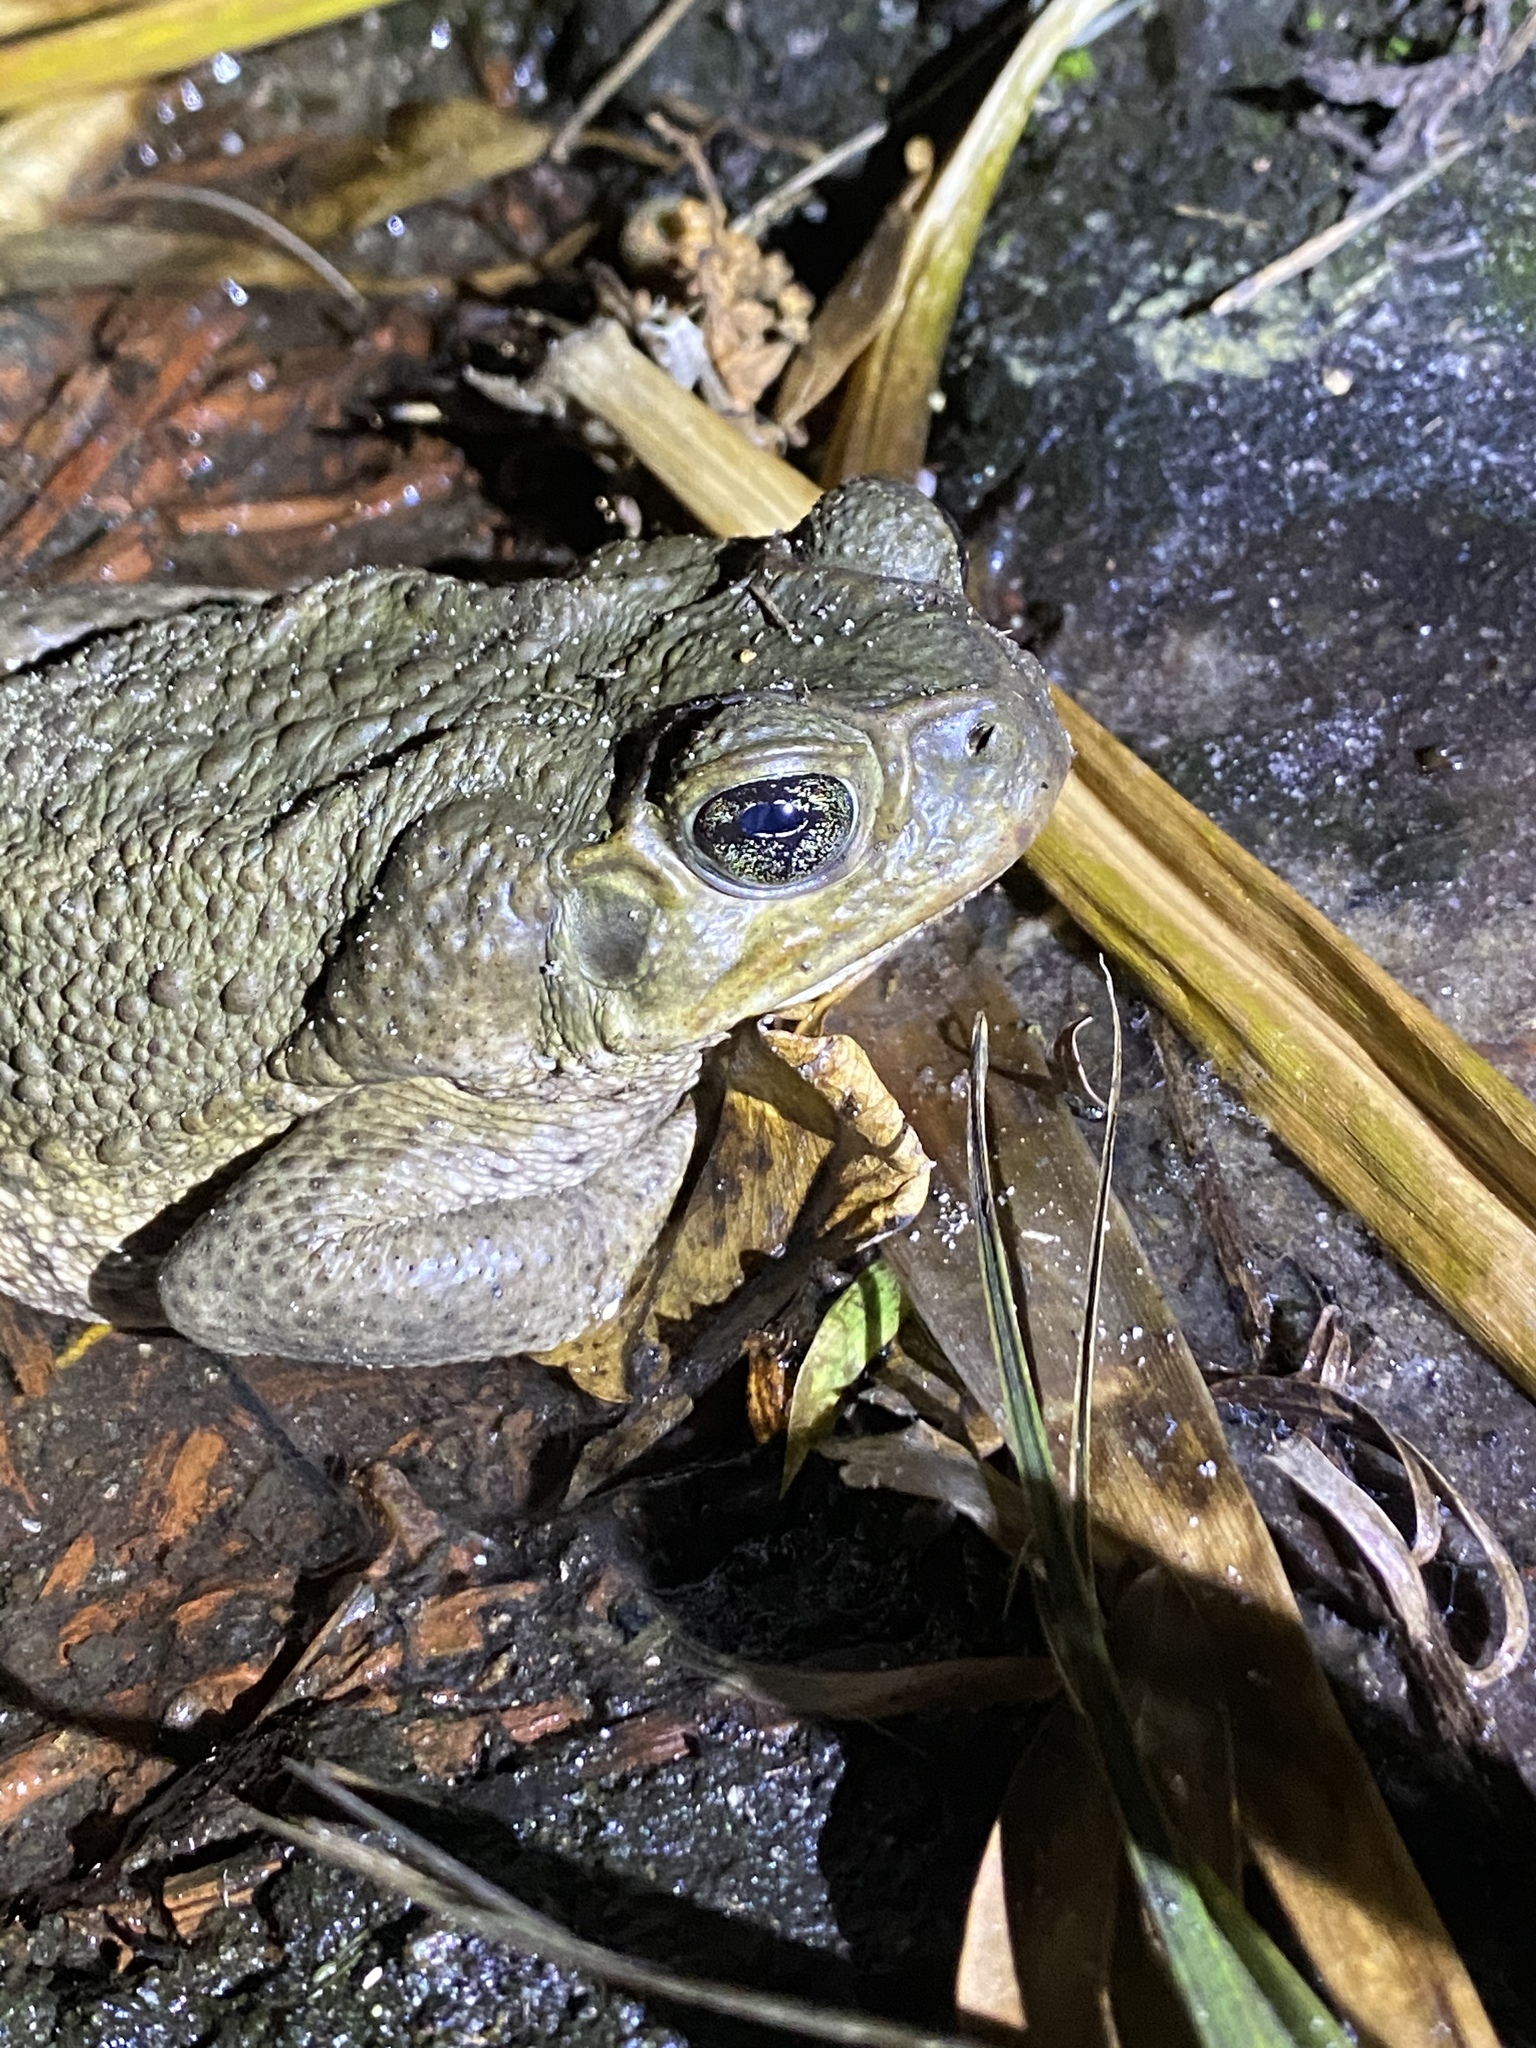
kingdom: Animalia
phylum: Chordata
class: Amphibia
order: Anura
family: Bufonidae
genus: Rhinella
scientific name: Rhinella marina
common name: Cane toad
